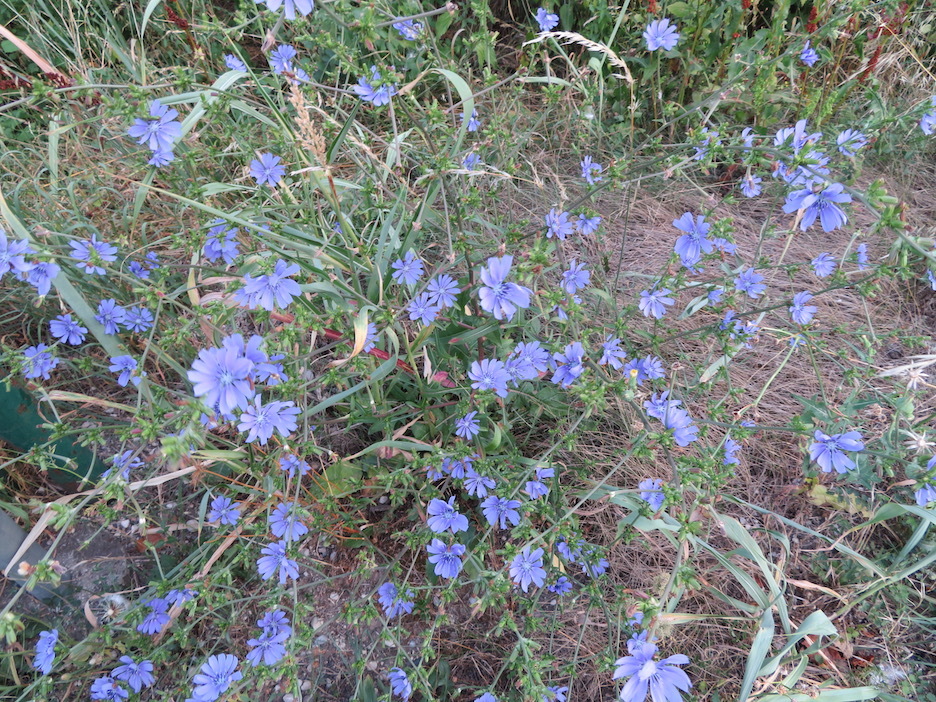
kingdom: Plantae
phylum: Tracheophyta
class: Magnoliopsida
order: Asterales
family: Asteraceae
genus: Cichorium
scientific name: Cichorium intybus
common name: Chicory
